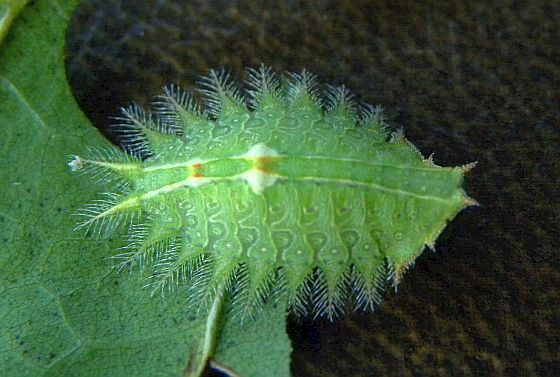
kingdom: Animalia
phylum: Arthropoda
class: Insecta
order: Lepidoptera
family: Limacodidae
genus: Isa
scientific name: Isa textula
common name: Crowned slug moth
